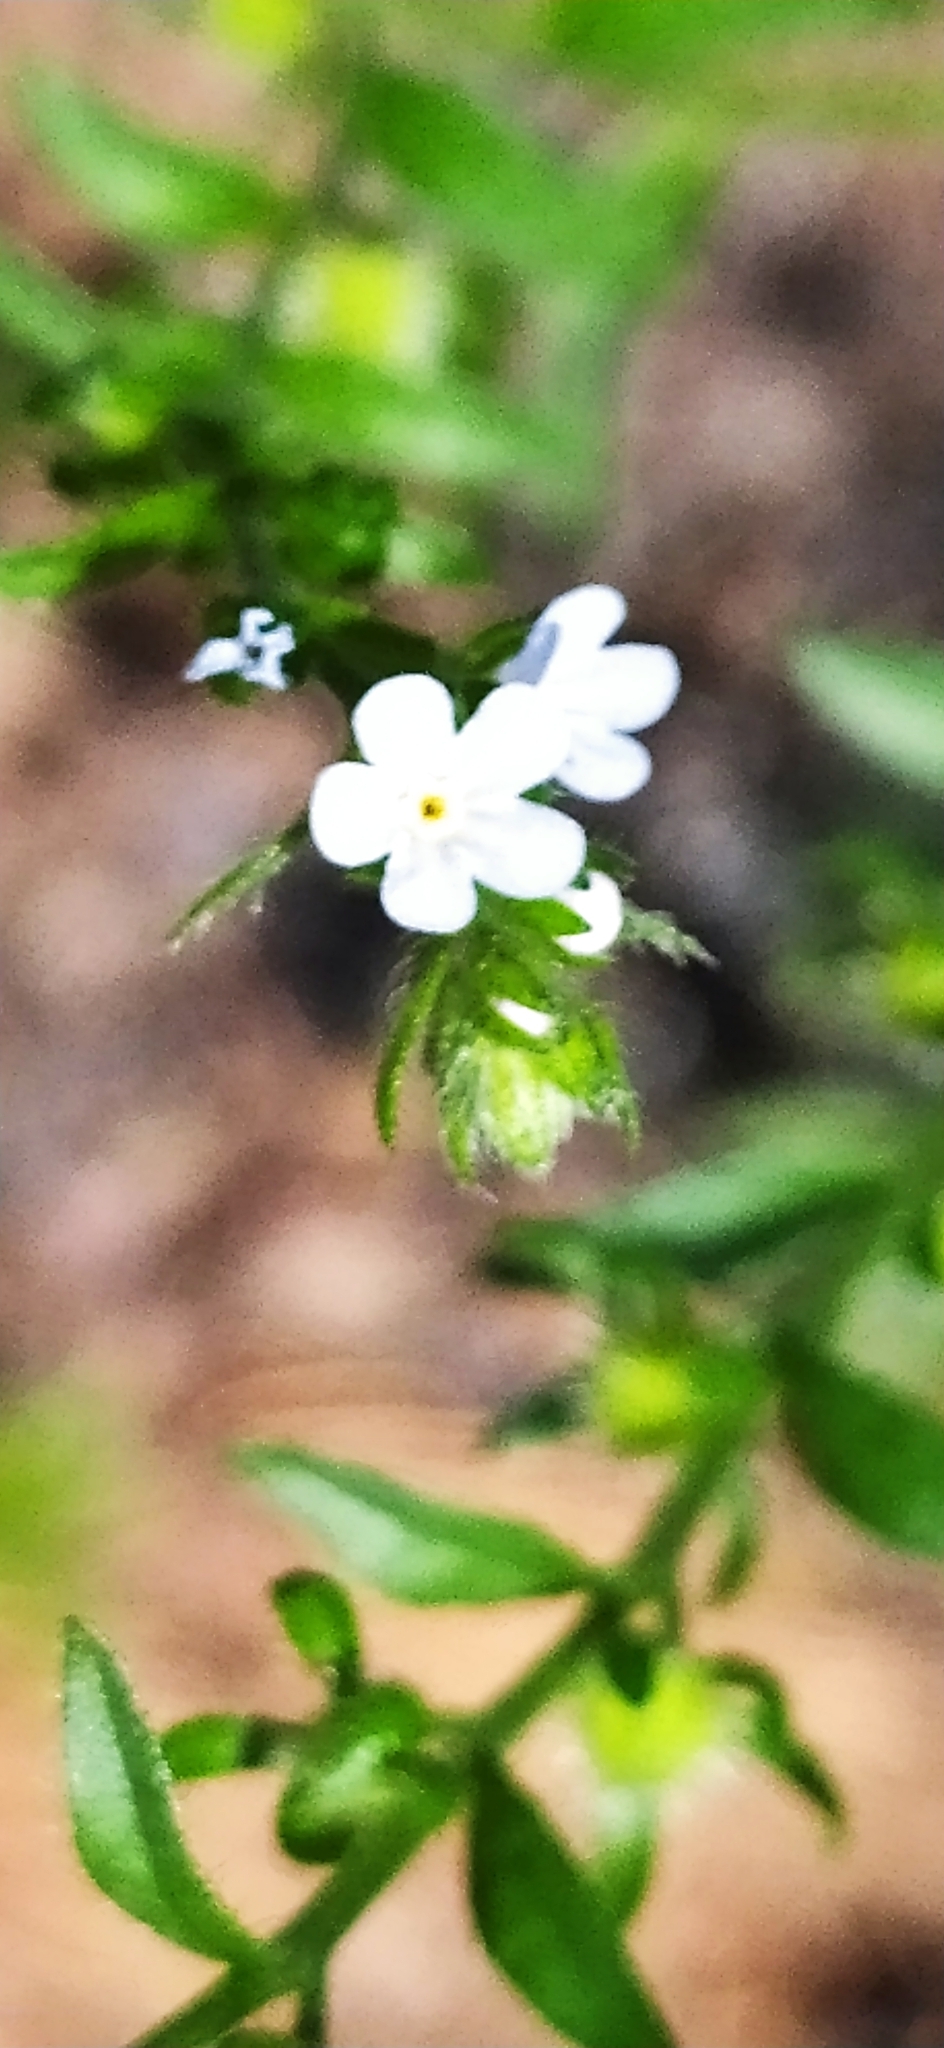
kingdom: Plantae
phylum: Tracheophyta
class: Magnoliopsida
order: Boraginales
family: Boraginaceae
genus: Lappula
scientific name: Lappula squarrosa
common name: European stickseed
